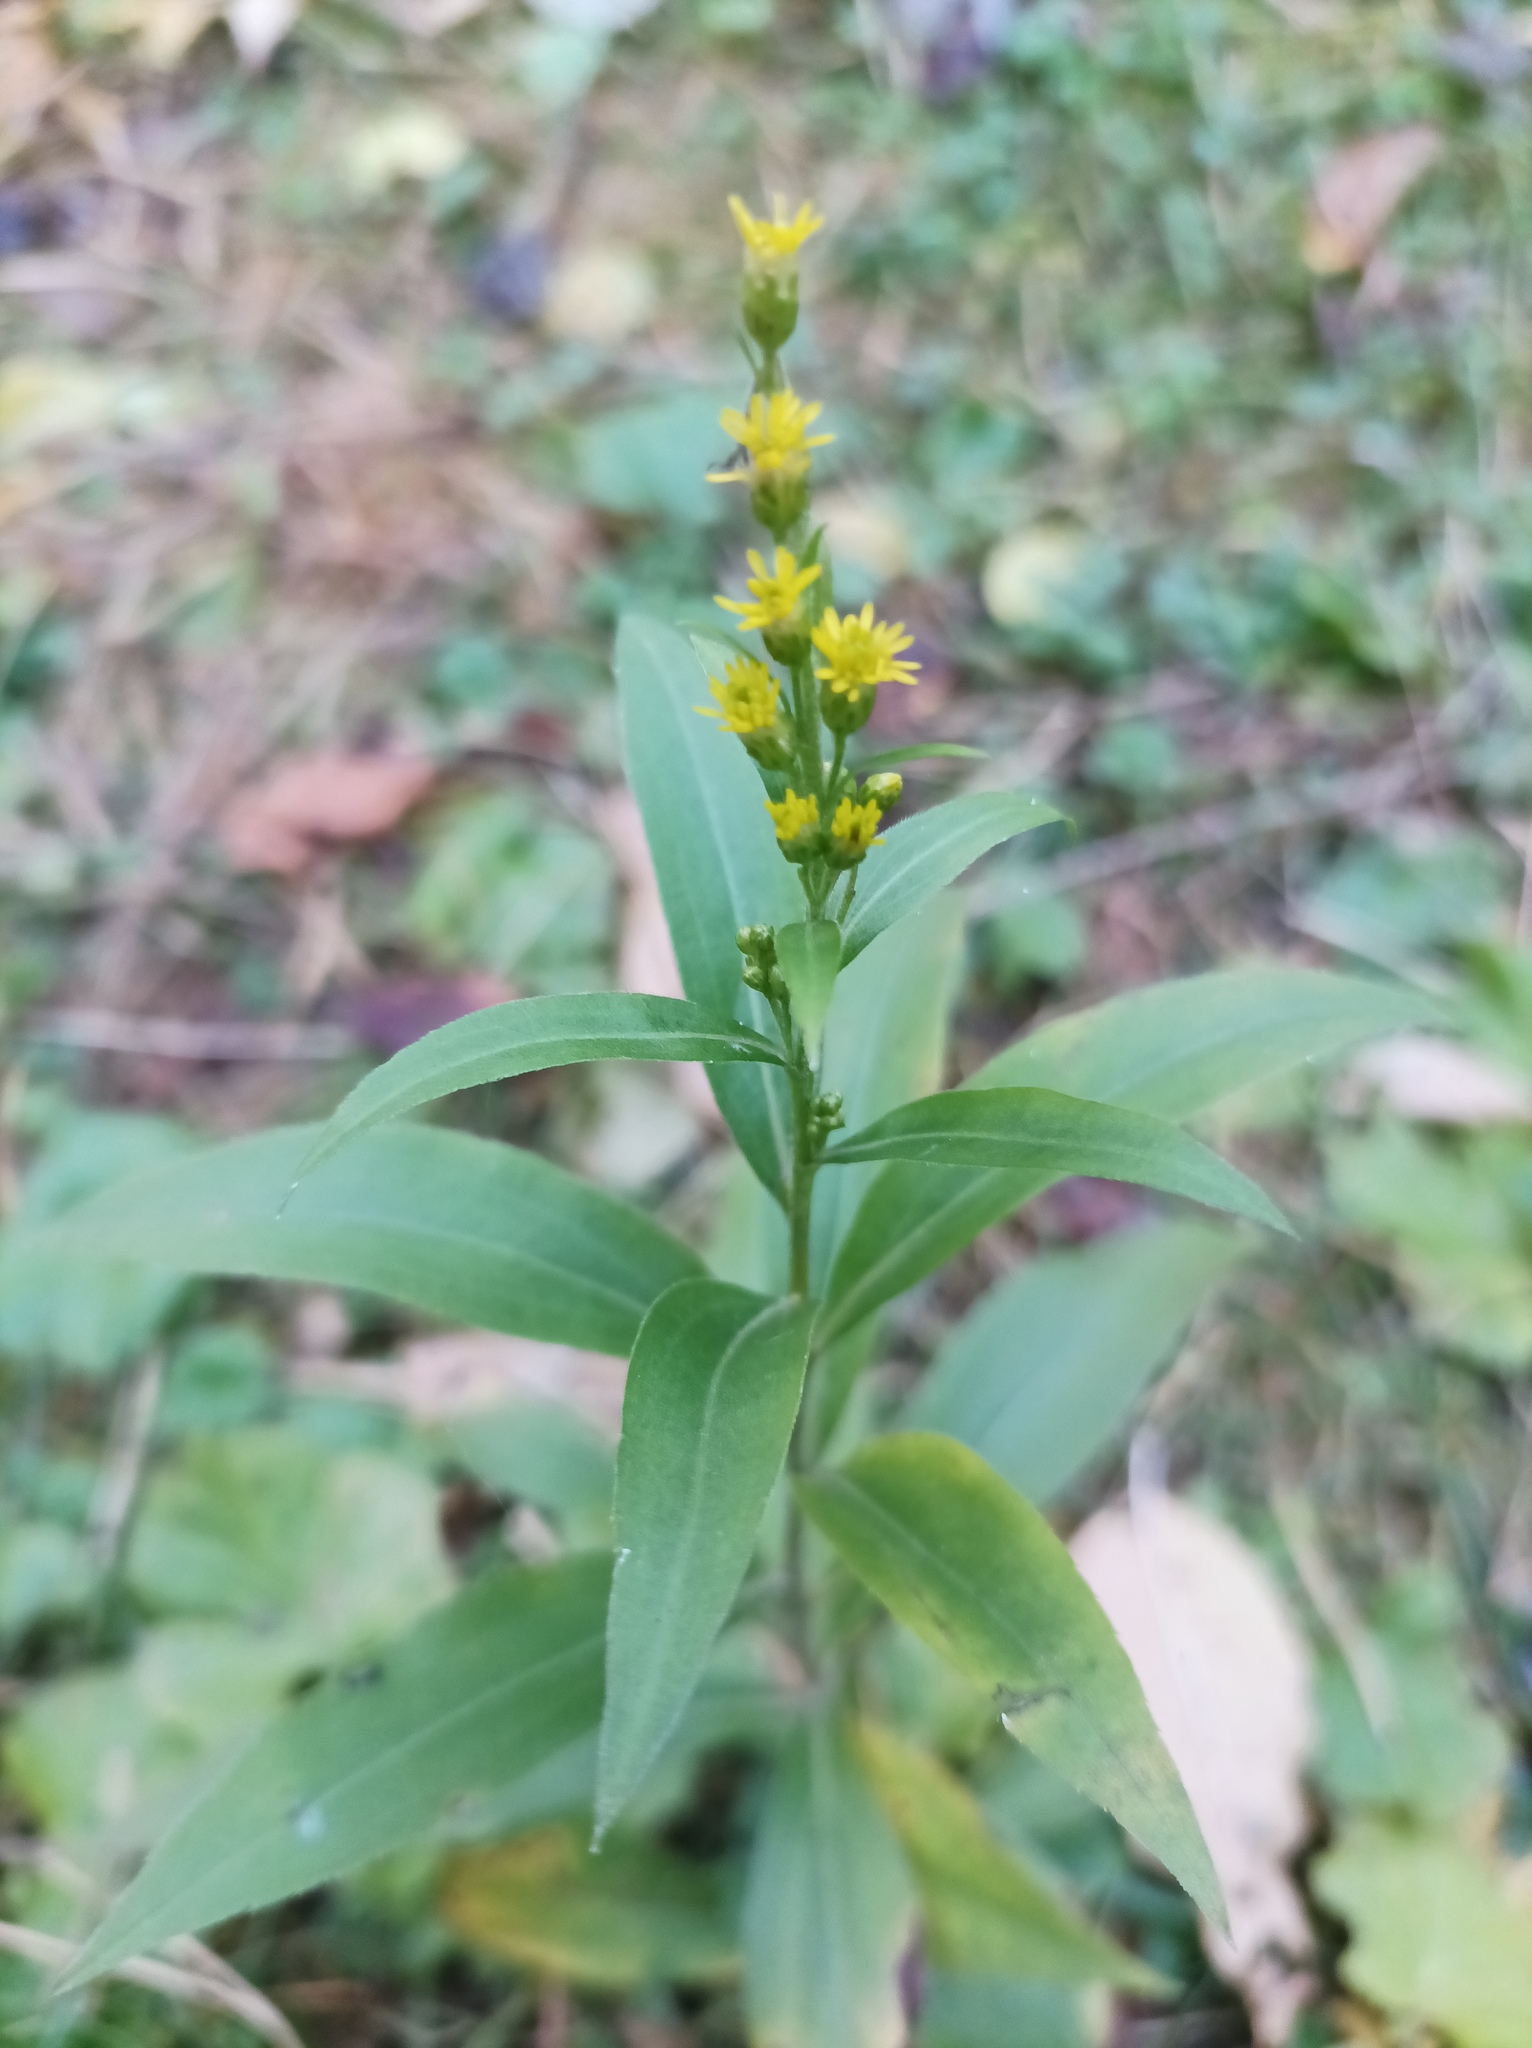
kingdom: Plantae
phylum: Tracheophyta
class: Magnoliopsida
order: Asterales
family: Asteraceae
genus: Solidago
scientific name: Solidago gigantea
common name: Giant goldenrod
